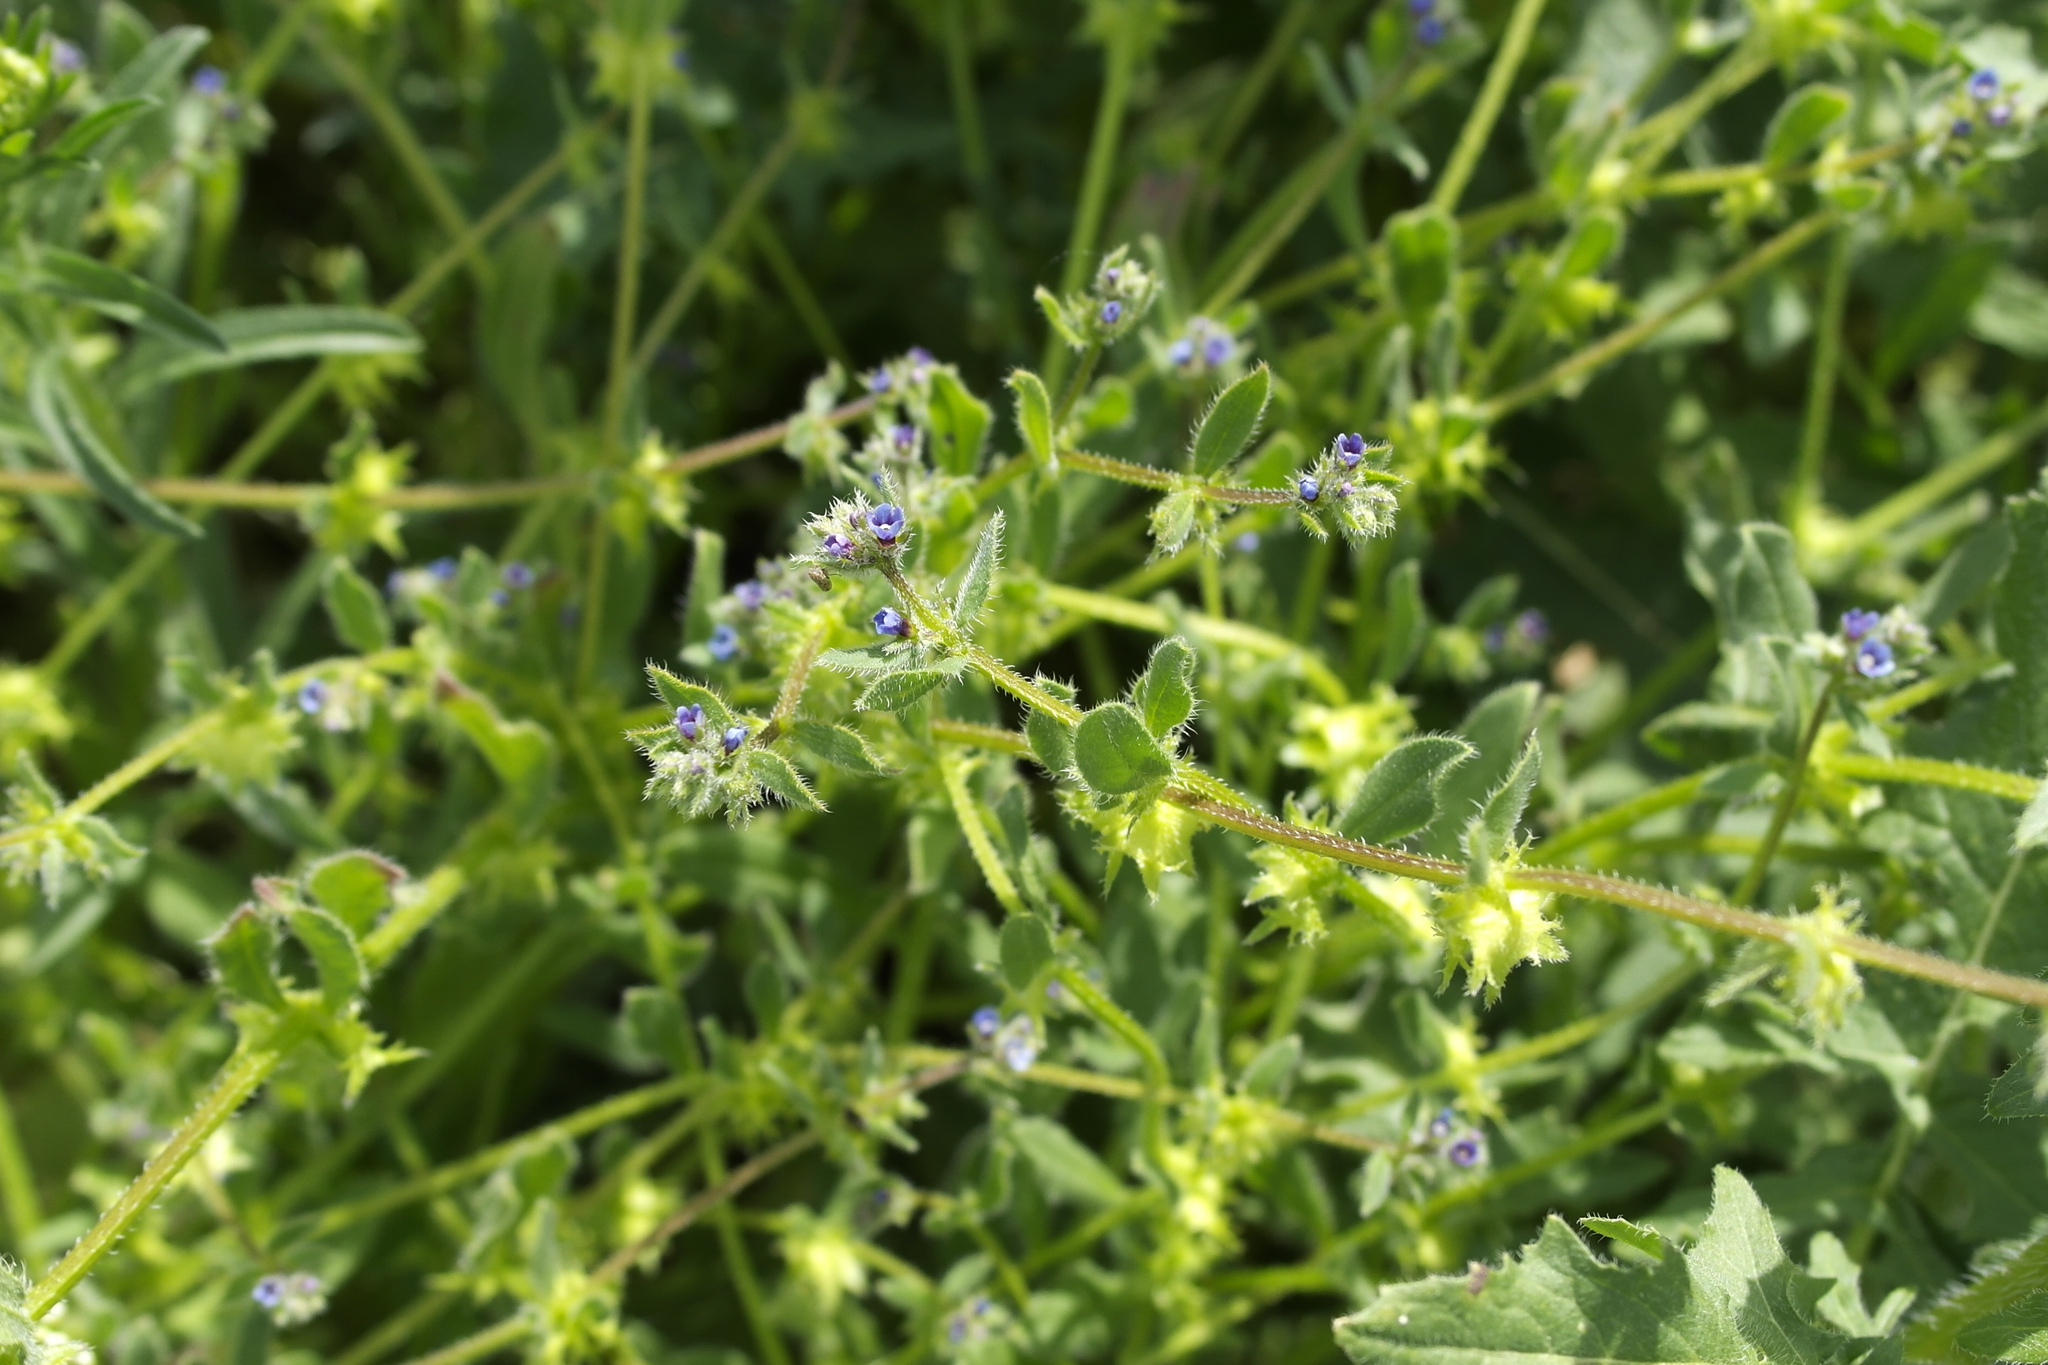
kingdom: Plantae
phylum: Tracheophyta
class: Magnoliopsida
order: Boraginales
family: Boraginaceae
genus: Asperugo
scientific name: Asperugo procumbens
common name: Madwort
